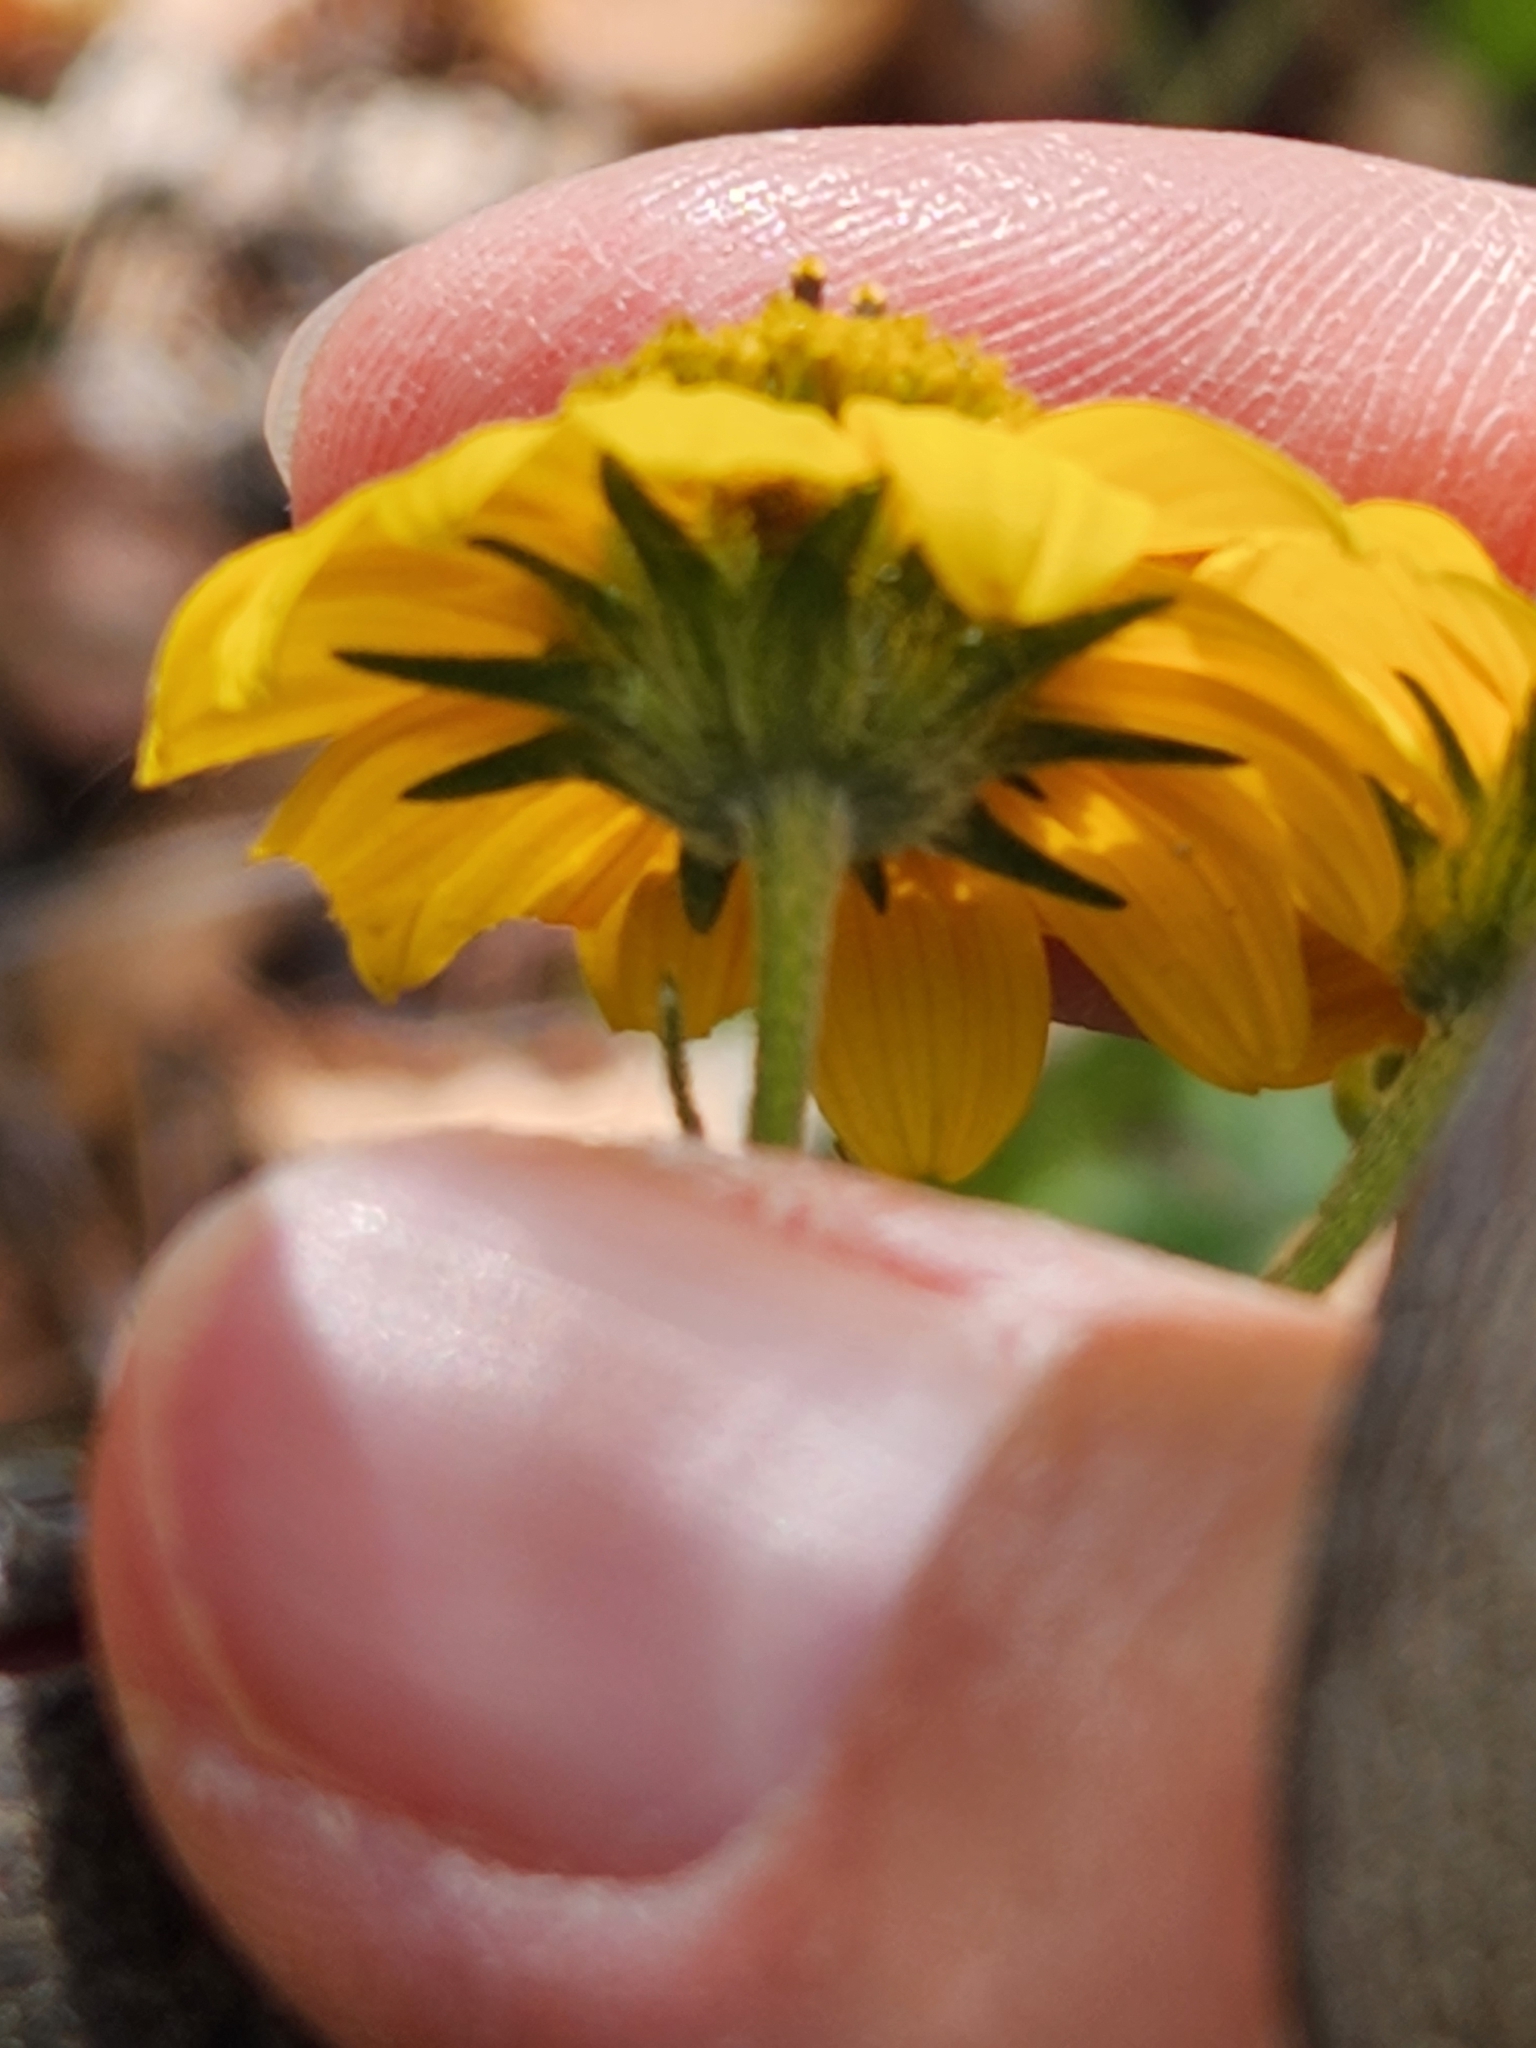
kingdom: Plantae
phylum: Tracheophyta
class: Magnoliopsida
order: Asterales
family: Asteraceae
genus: Viguiera
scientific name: Viguiera dentata
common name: Toothleaf
